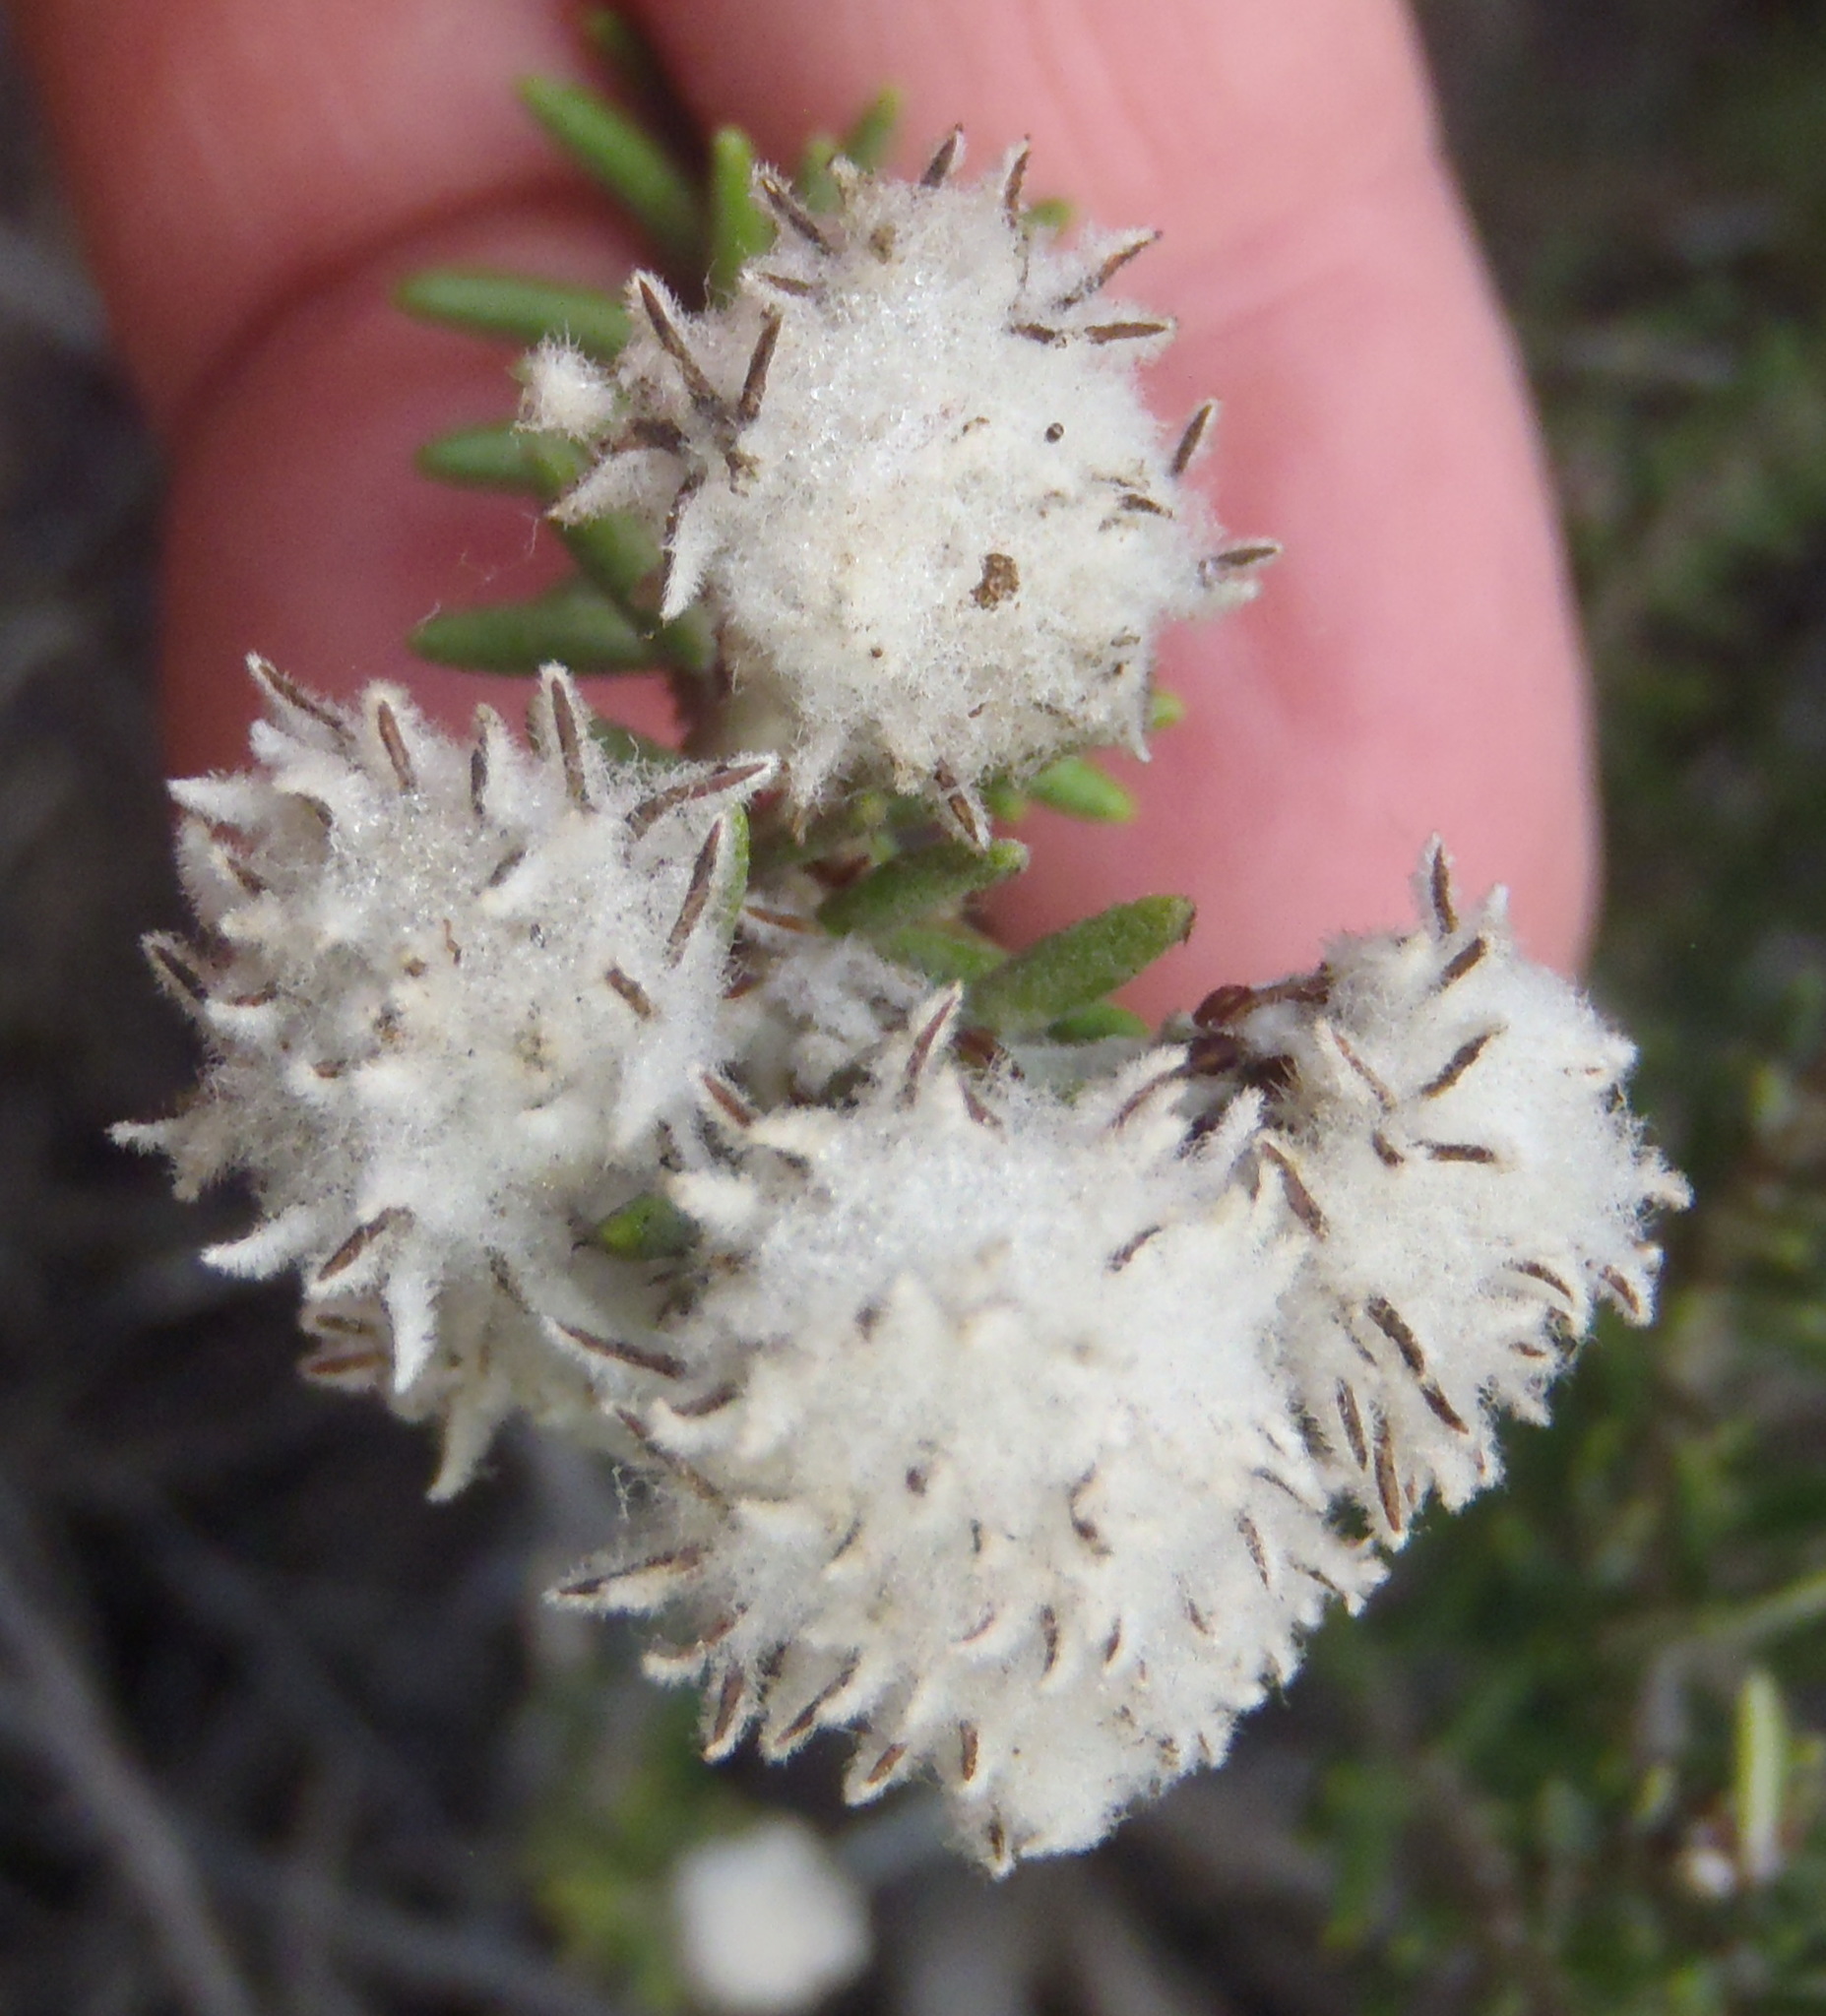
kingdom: Plantae
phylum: Tracheophyta
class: Magnoliopsida
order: Rosales
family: Rhamnaceae
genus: Trichocephalus
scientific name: Trichocephalus stipularis
